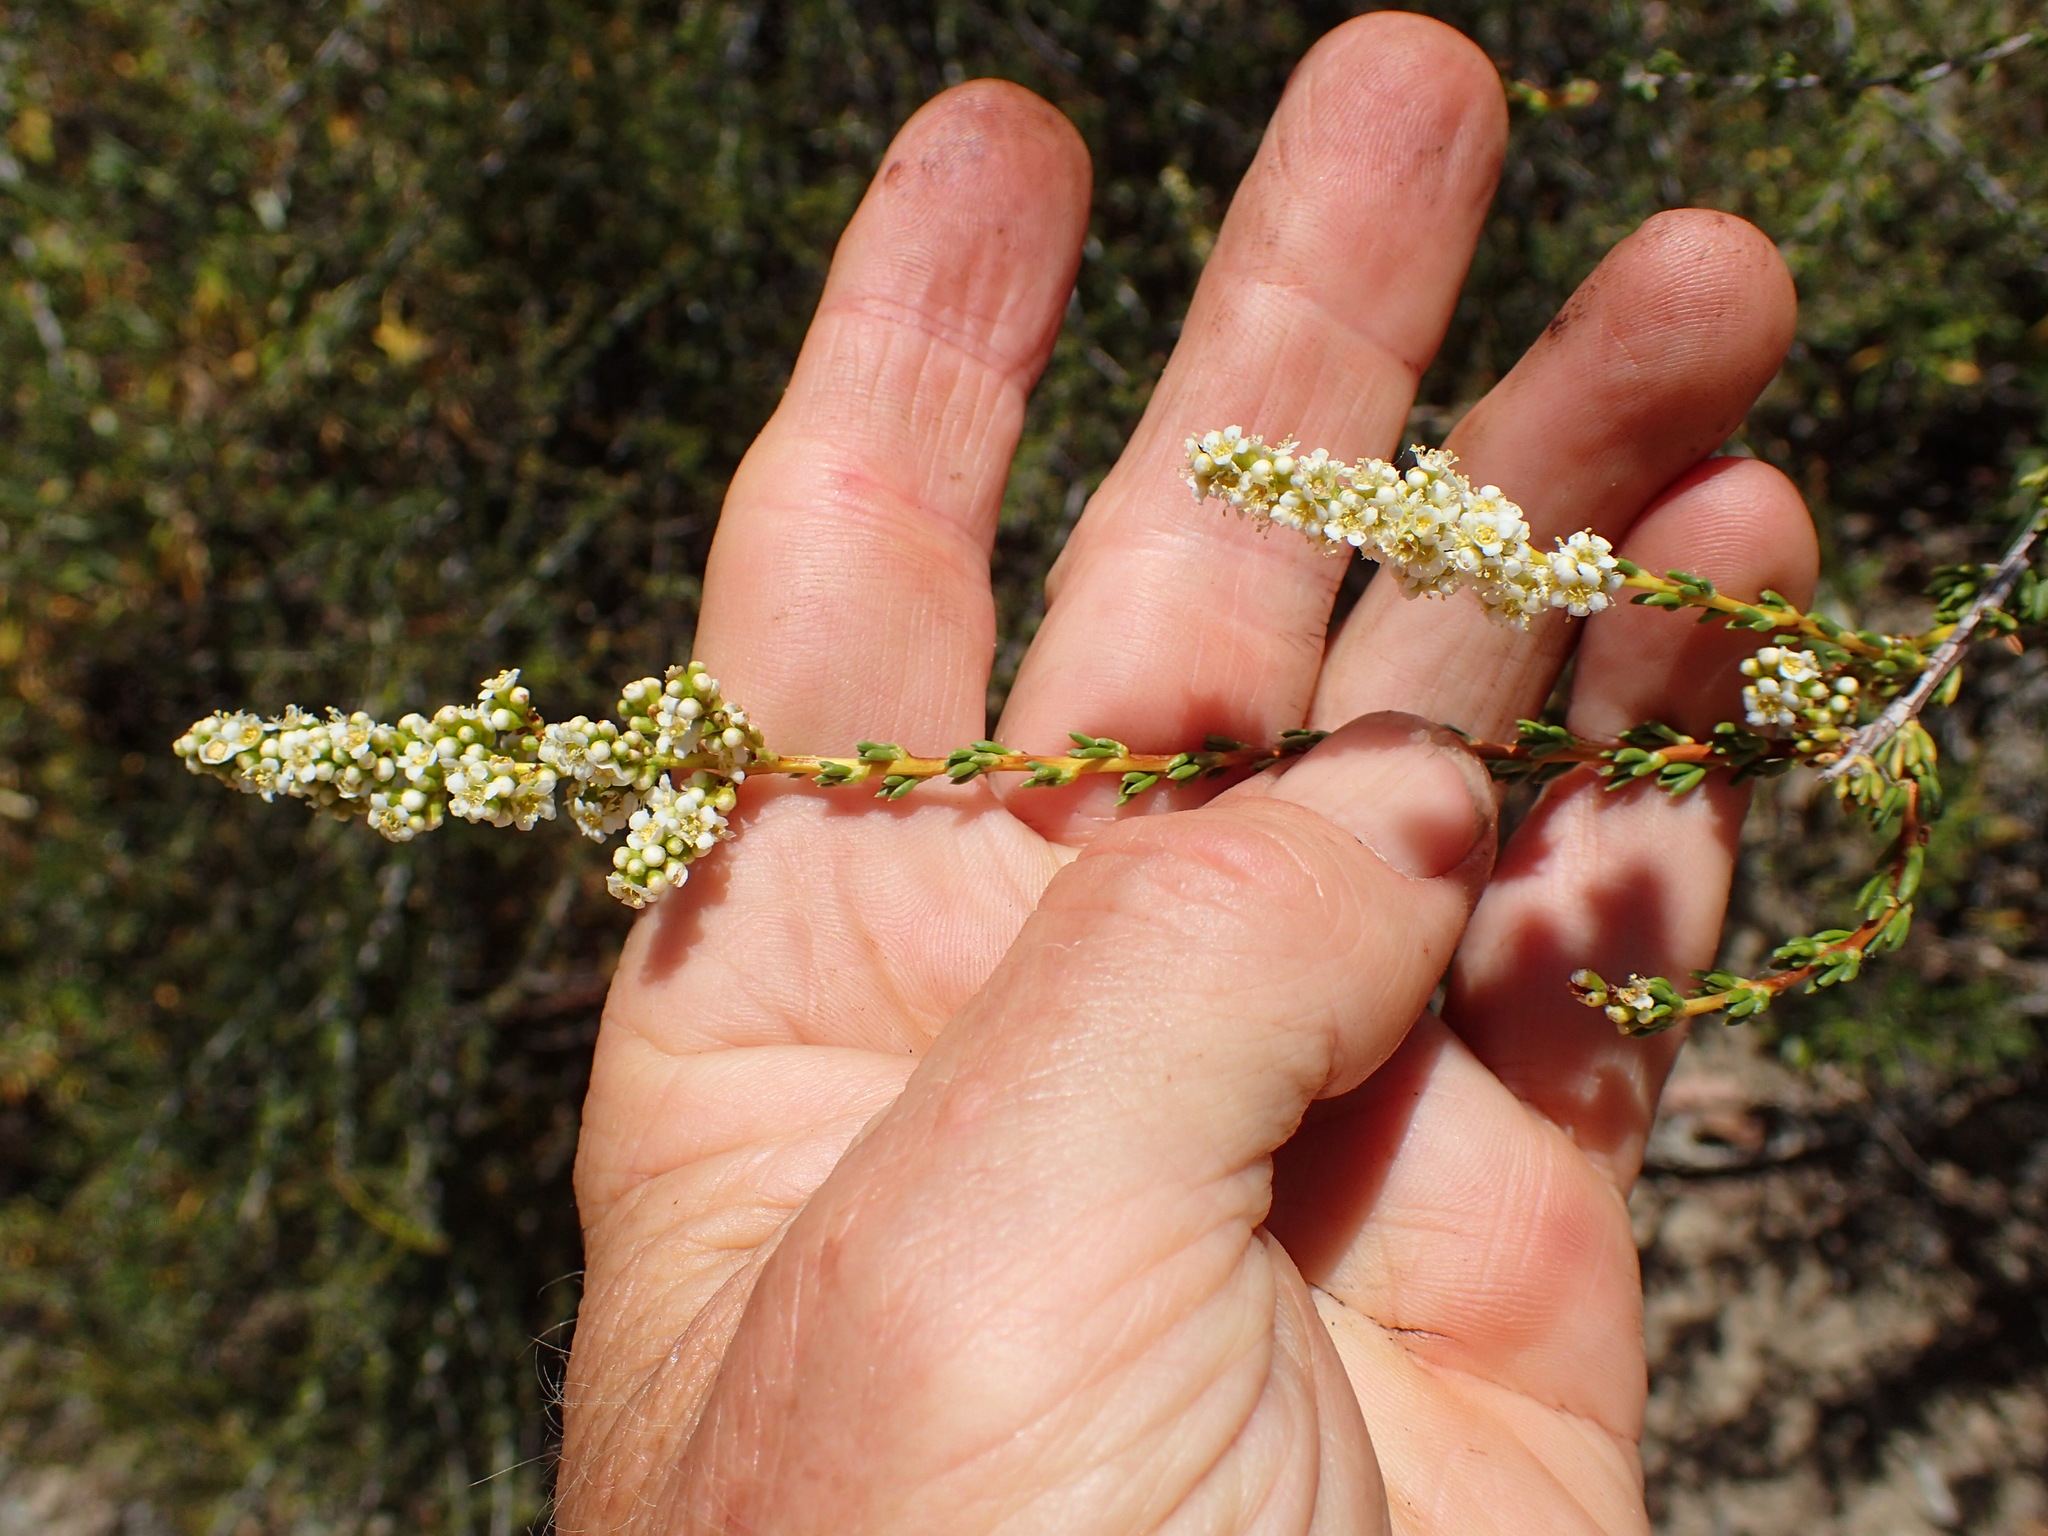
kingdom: Plantae
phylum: Tracheophyta
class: Magnoliopsida
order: Rosales
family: Rosaceae
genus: Adenostoma
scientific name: Adenostoma fasciculatum
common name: Chamise
